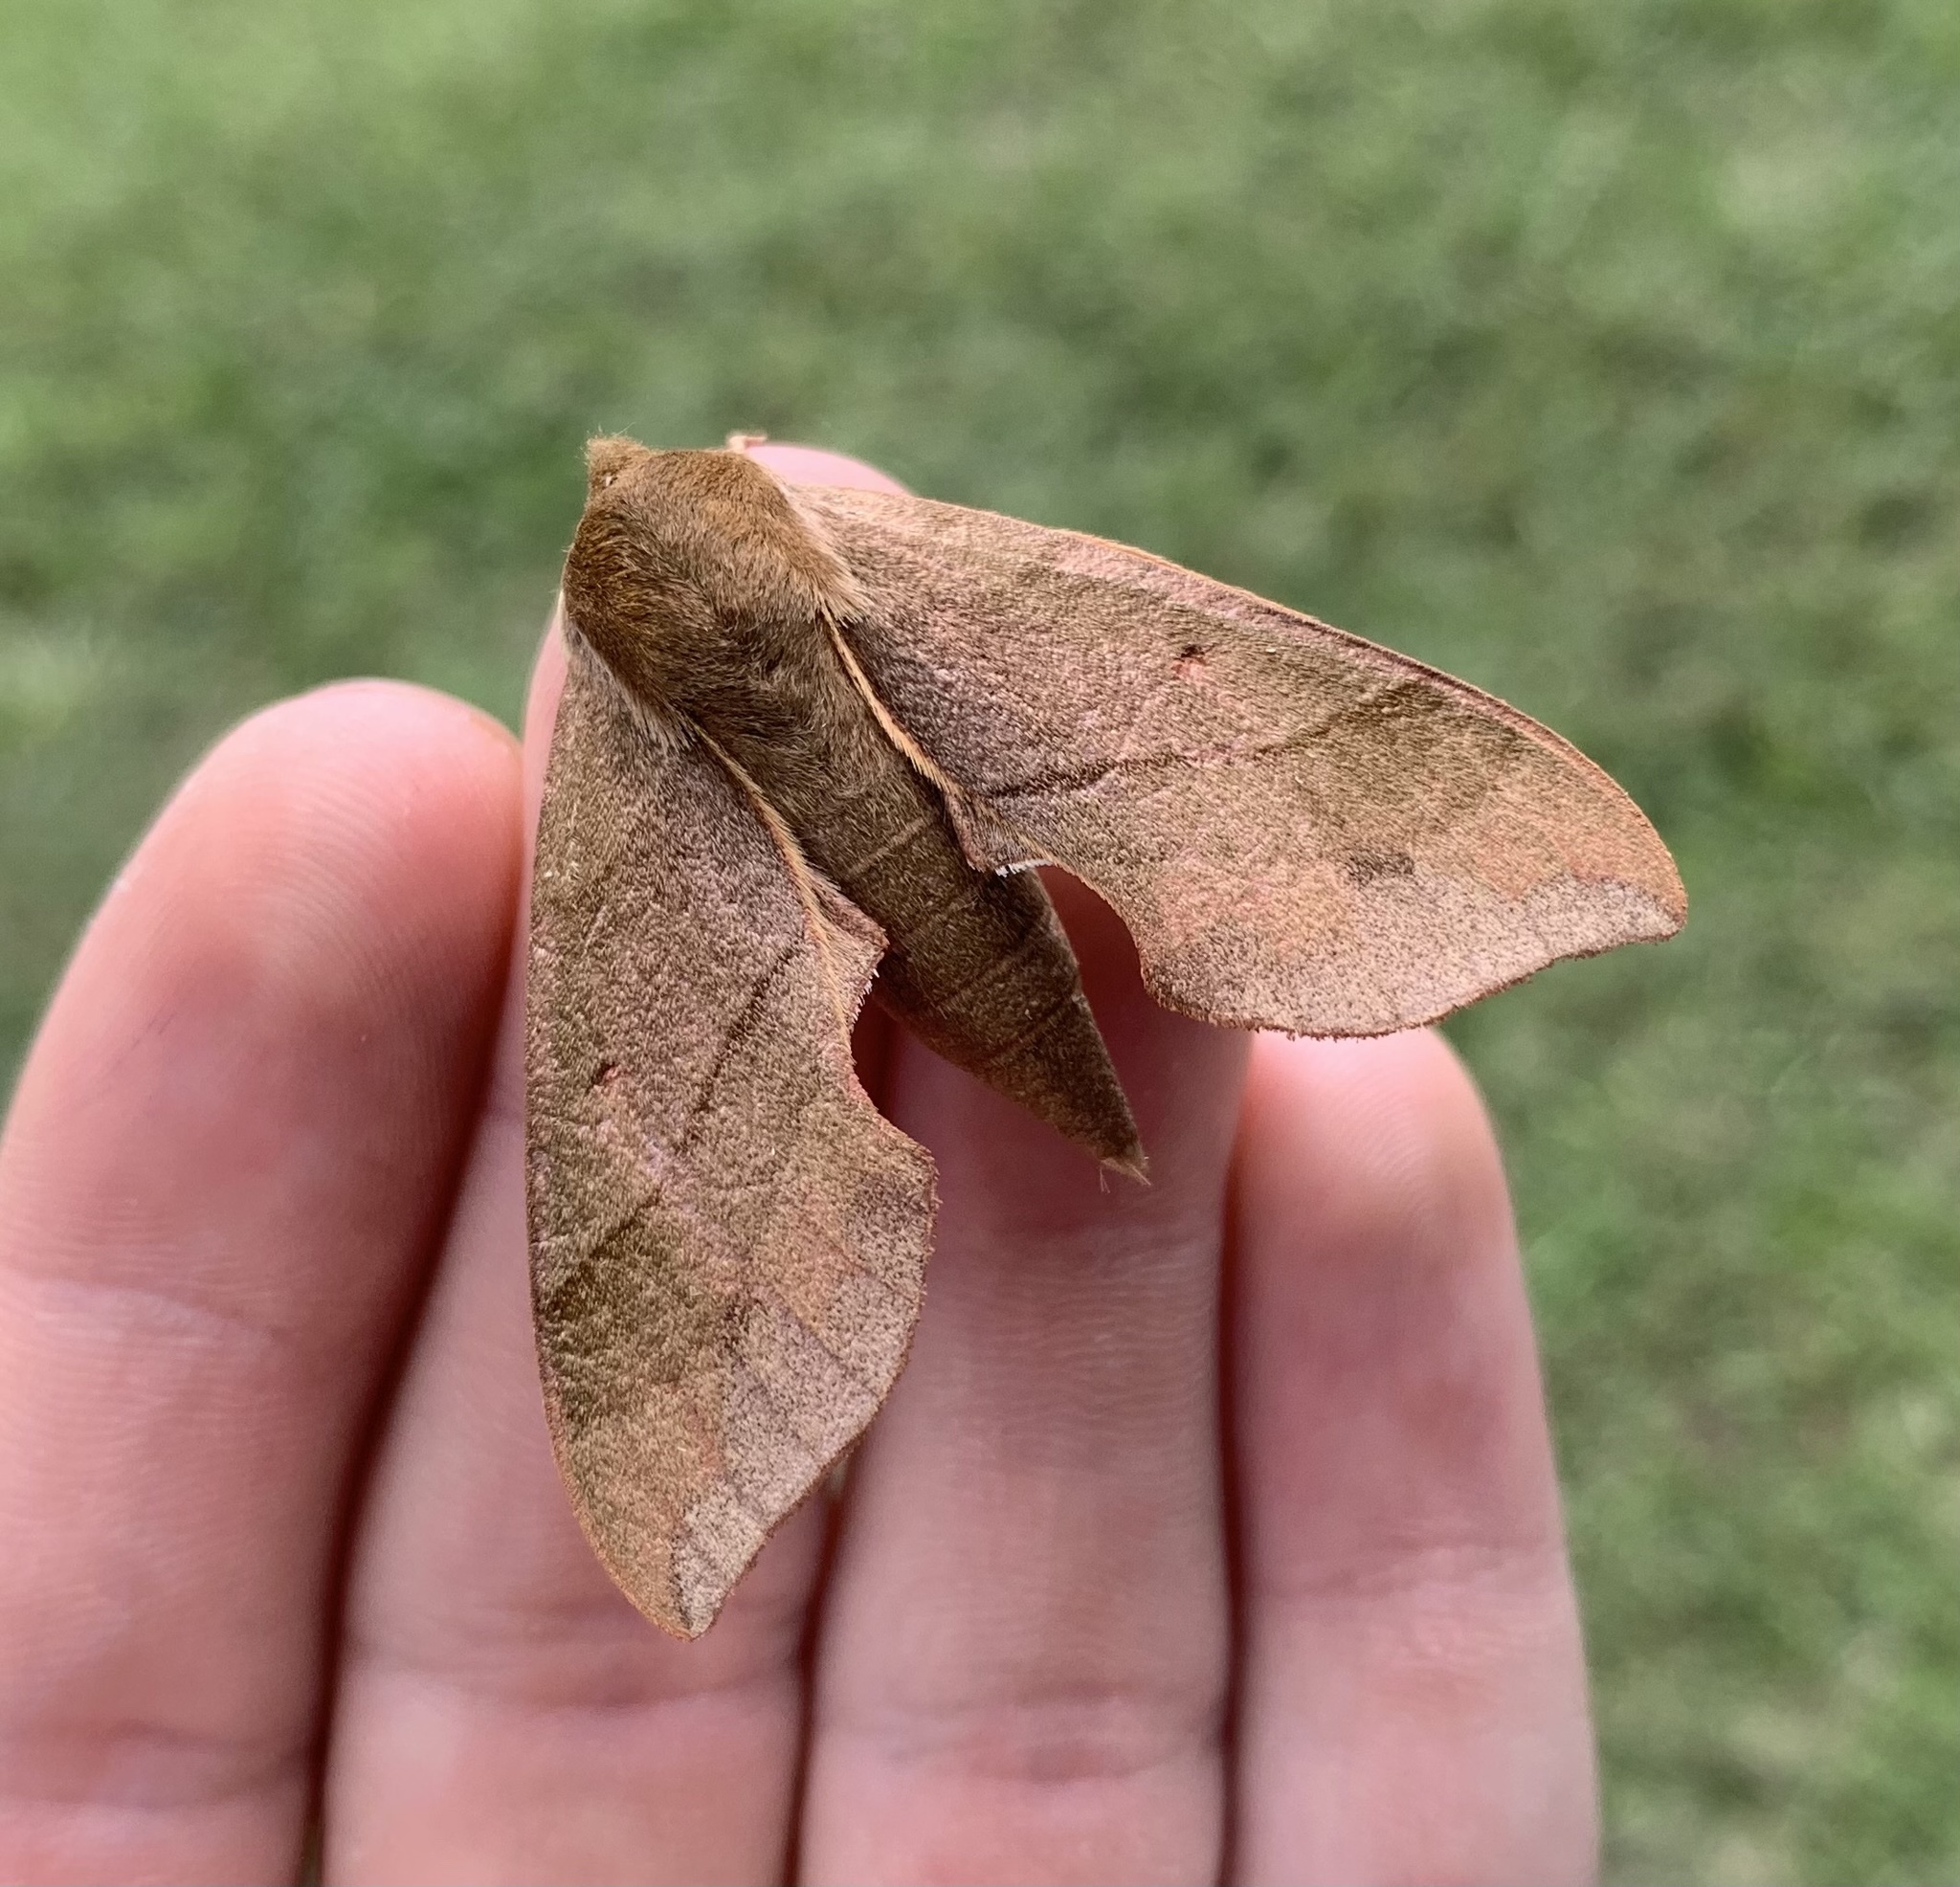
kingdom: Animalia
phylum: Arthropoda
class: Insecta
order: Lepidoptera
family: Sphingidae
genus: Darapsa
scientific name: Darapsa myron
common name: Hog sphinx
